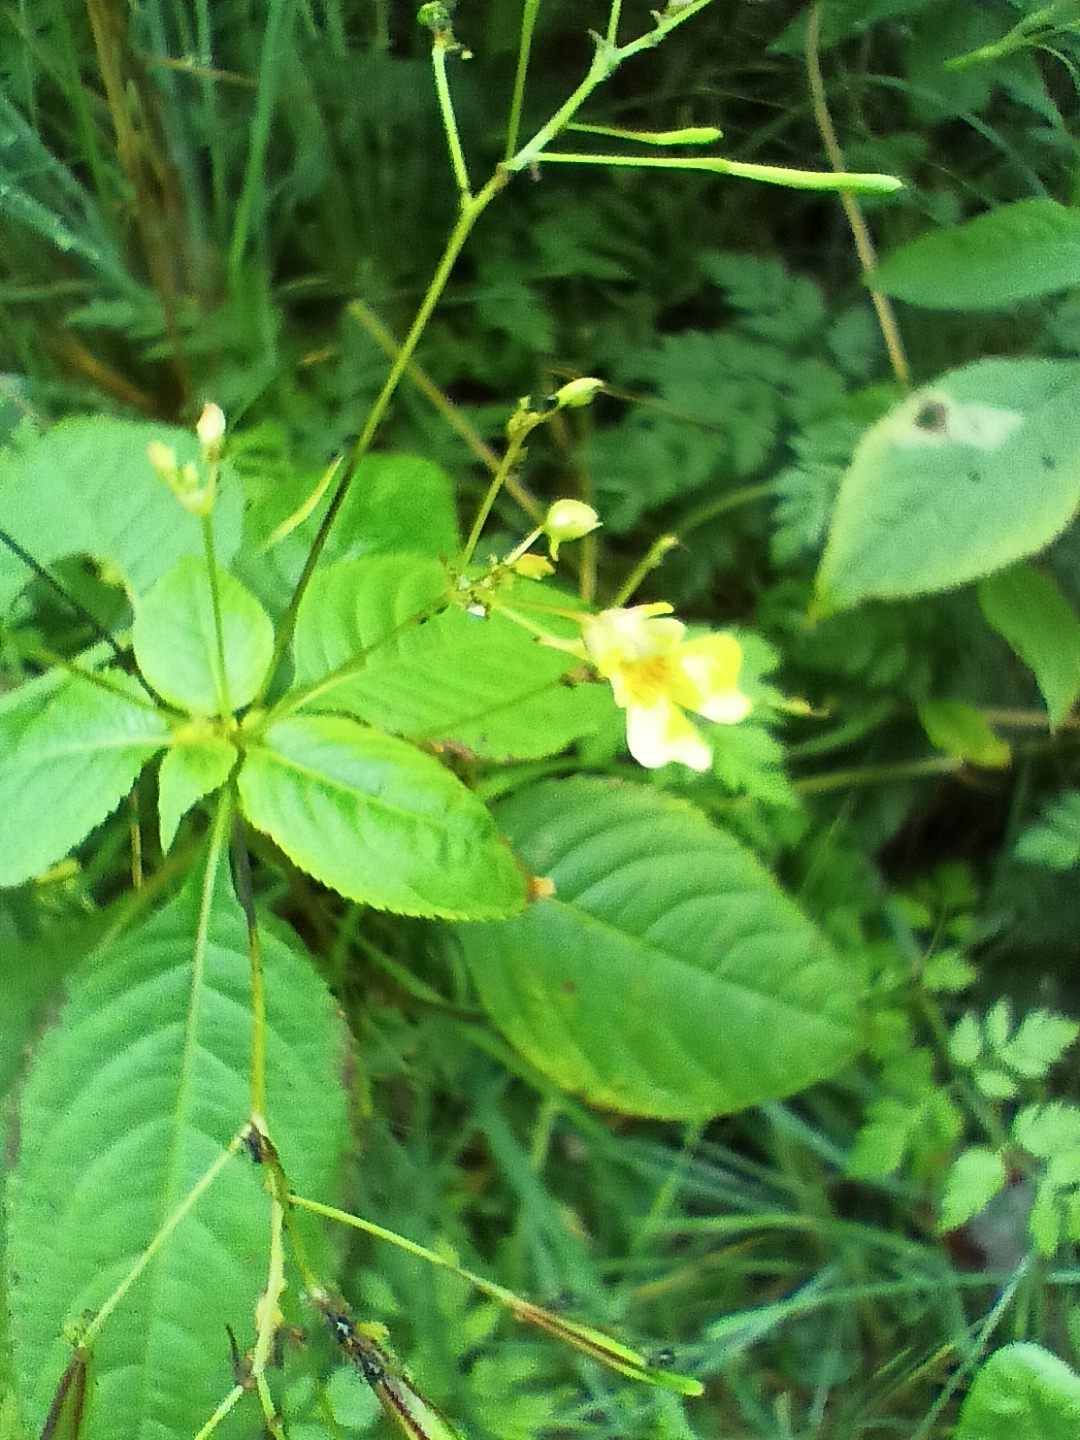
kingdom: Plantae
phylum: Tracheophyta
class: Magnoliopsida
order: Ericales
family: Balsaminaceae
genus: Impatiens
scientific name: Impatiens parviflora
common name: Small balsam
